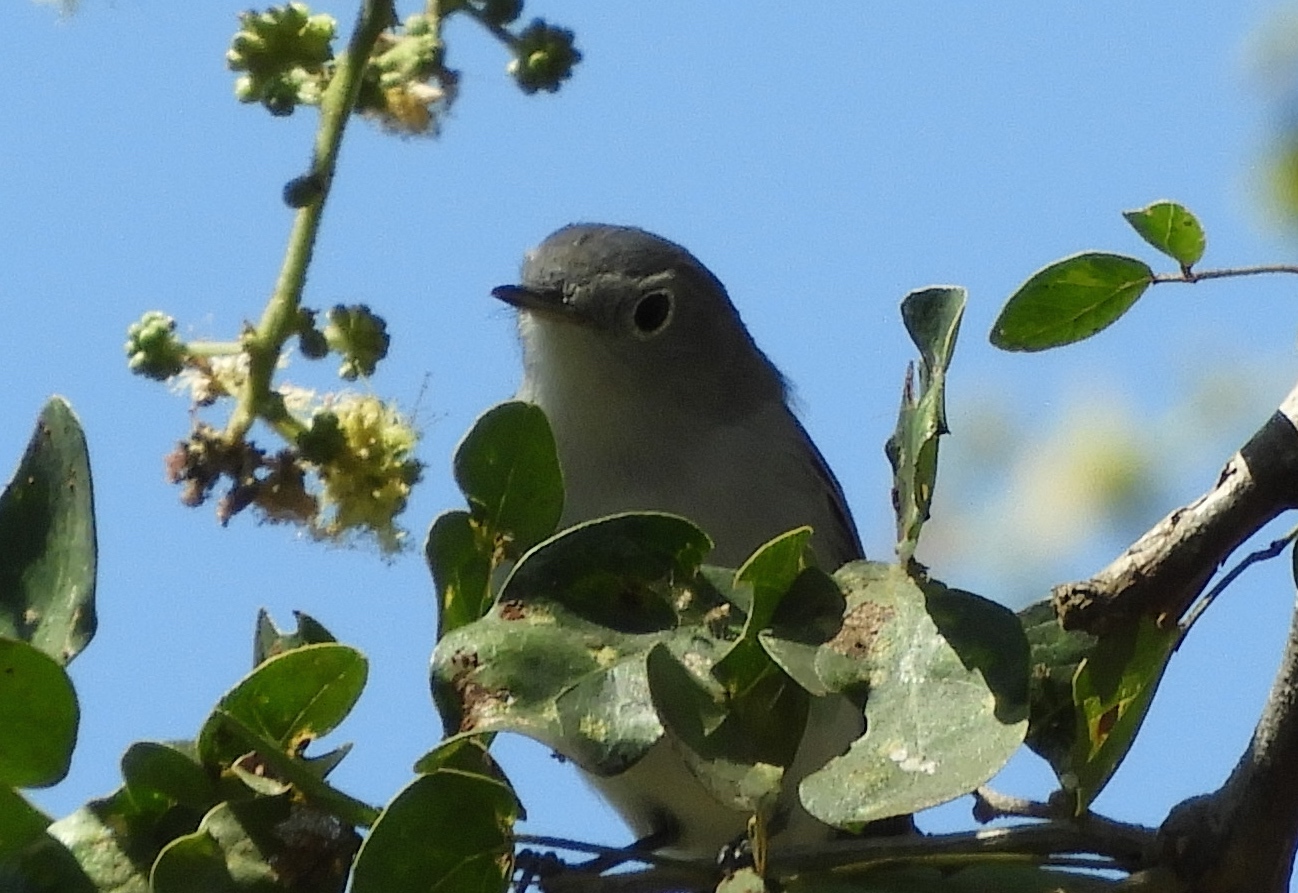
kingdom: Animalia
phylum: Chordata
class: Aves
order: Passeriformes
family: Polioptilidae
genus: Polioptila
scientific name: Polioptila caerulea
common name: Blue-gray gnatcatcher
